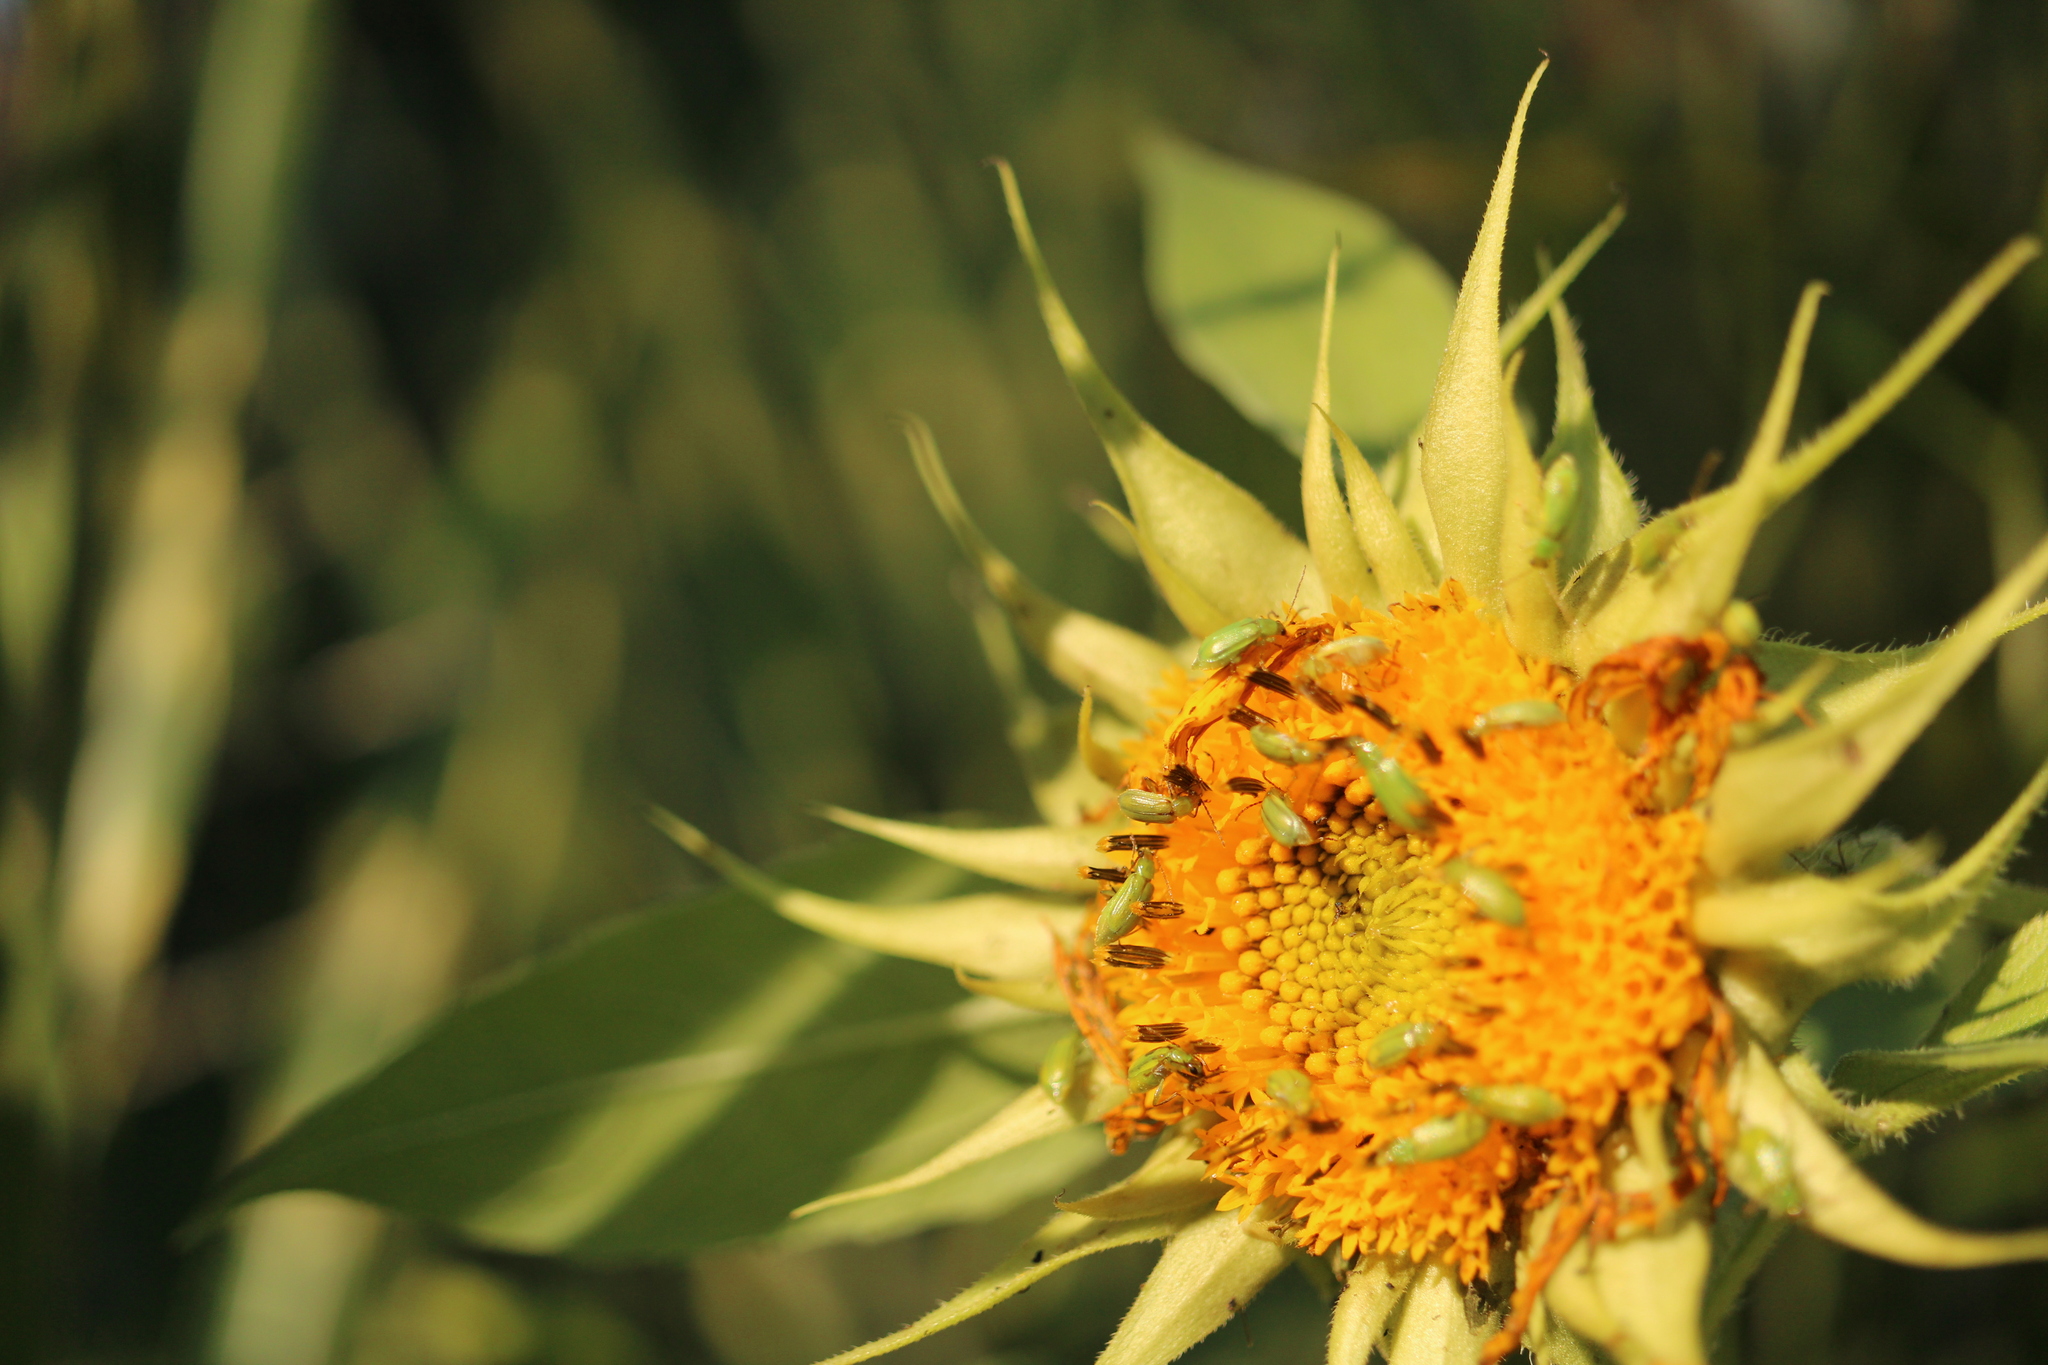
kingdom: Animalia
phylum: Arthropoda
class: Insecta
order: Coleoptera
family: Chrysomelidae
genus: Diabrotica
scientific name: Diabrotica barberi
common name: Northern corn rootworm
